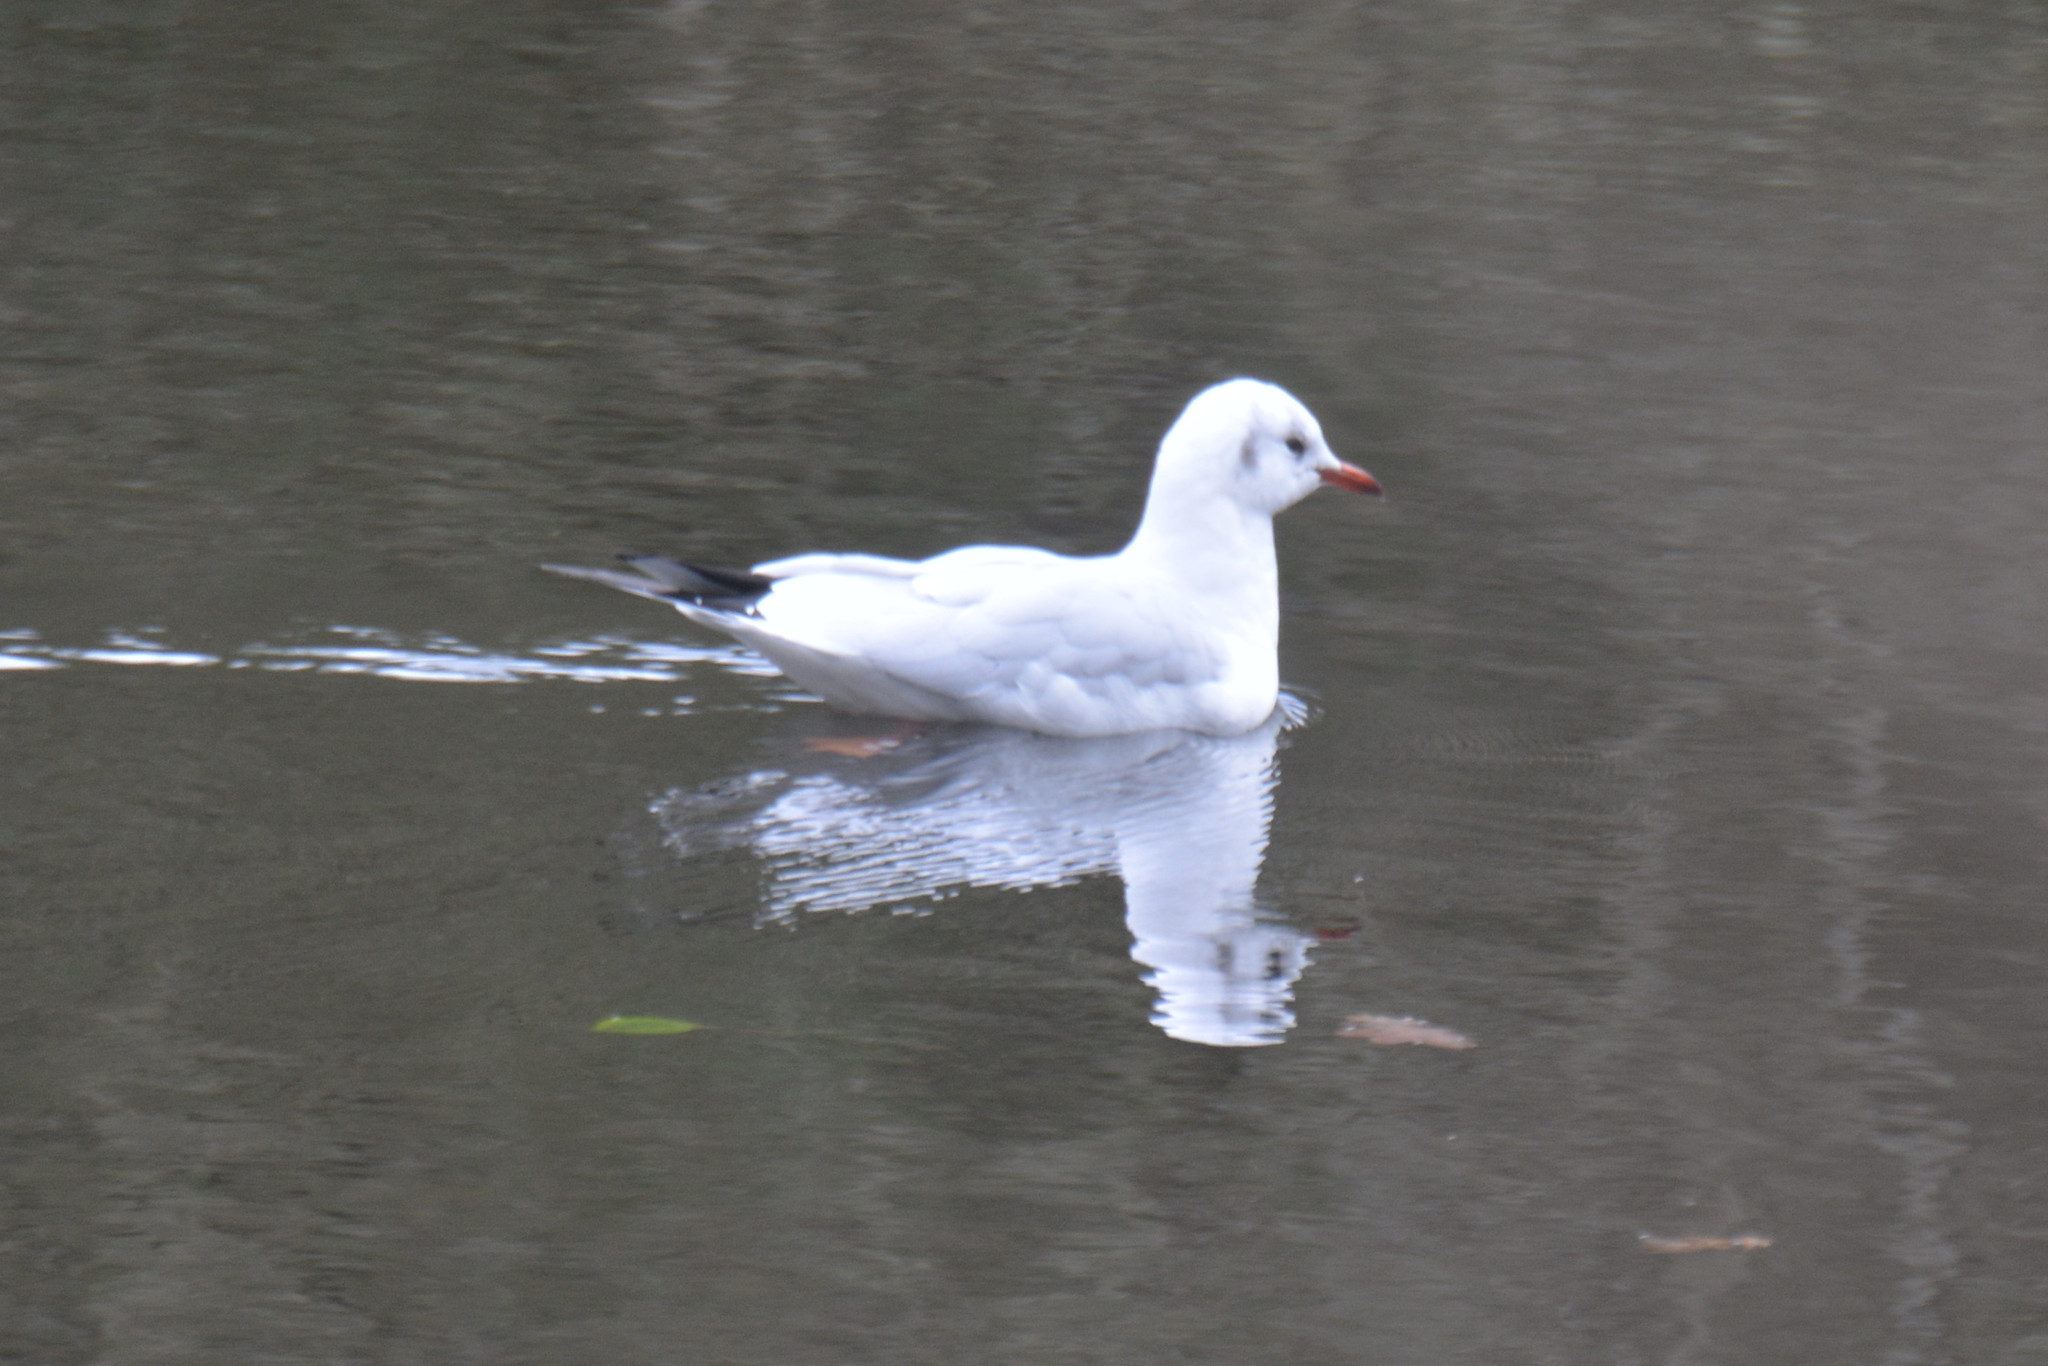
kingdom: Animalia
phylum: Chordata
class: Aves
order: Charadriiformes
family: Laridae
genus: Chroicocephalus
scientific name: Chroicocephalus ridibundus
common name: Black-headed gull
